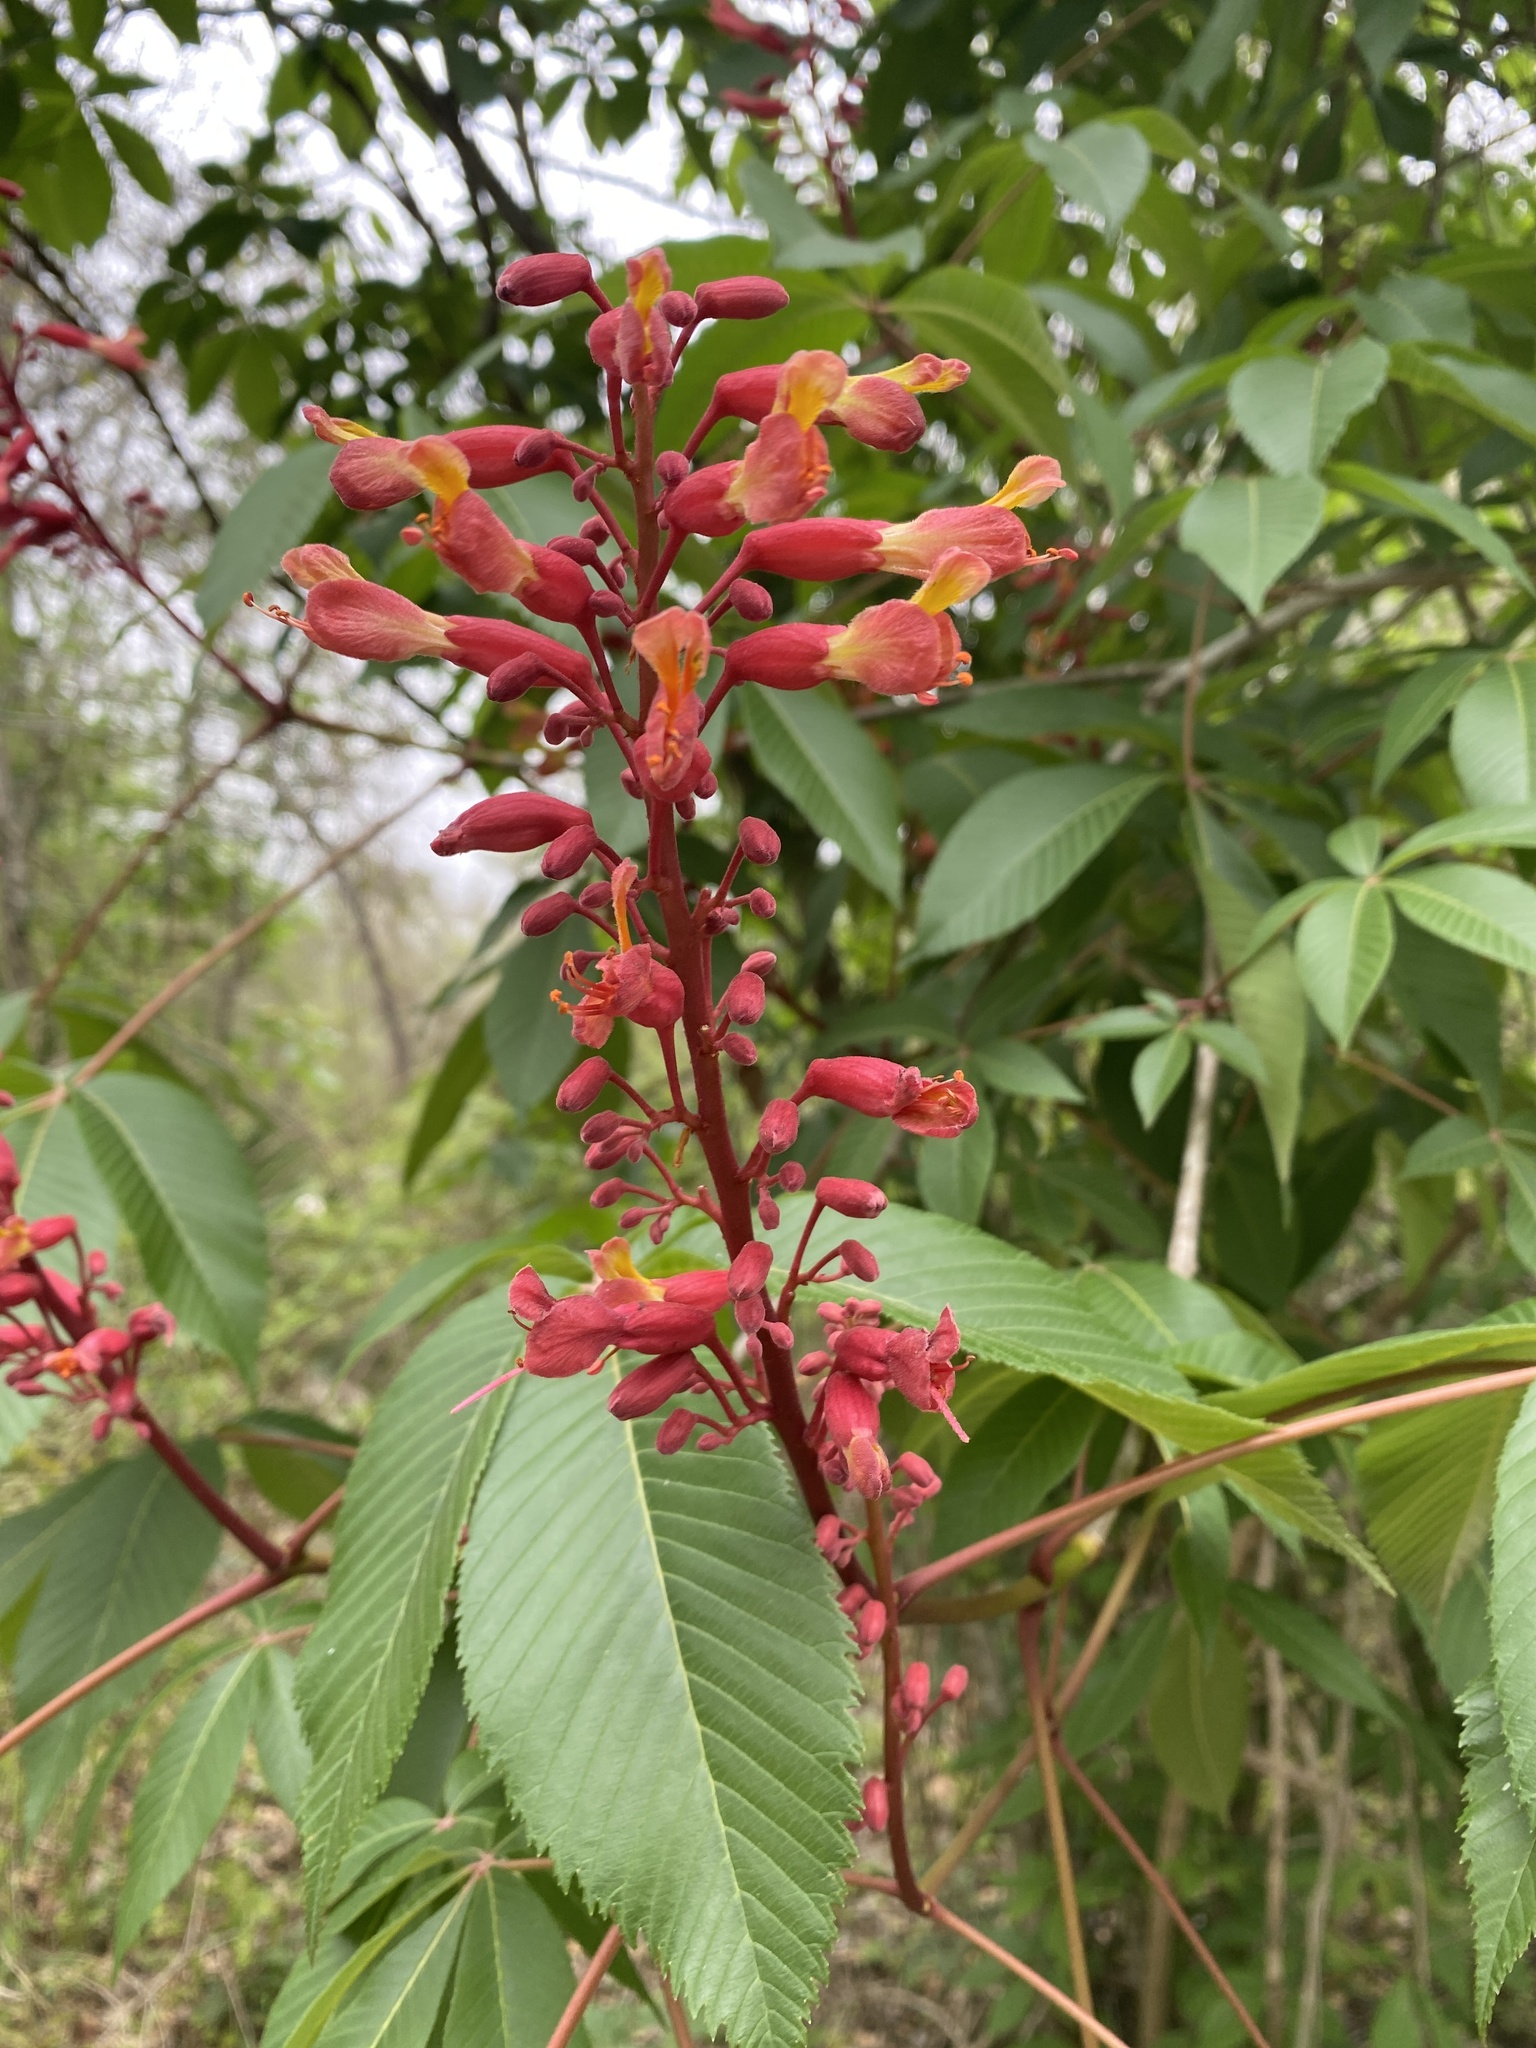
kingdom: Plantae
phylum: Tracheophyta
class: Magnoliopsida
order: Sapindales
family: Sapindaceae
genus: Aesculus
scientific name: Aesculus pavia
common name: Red buckeye
